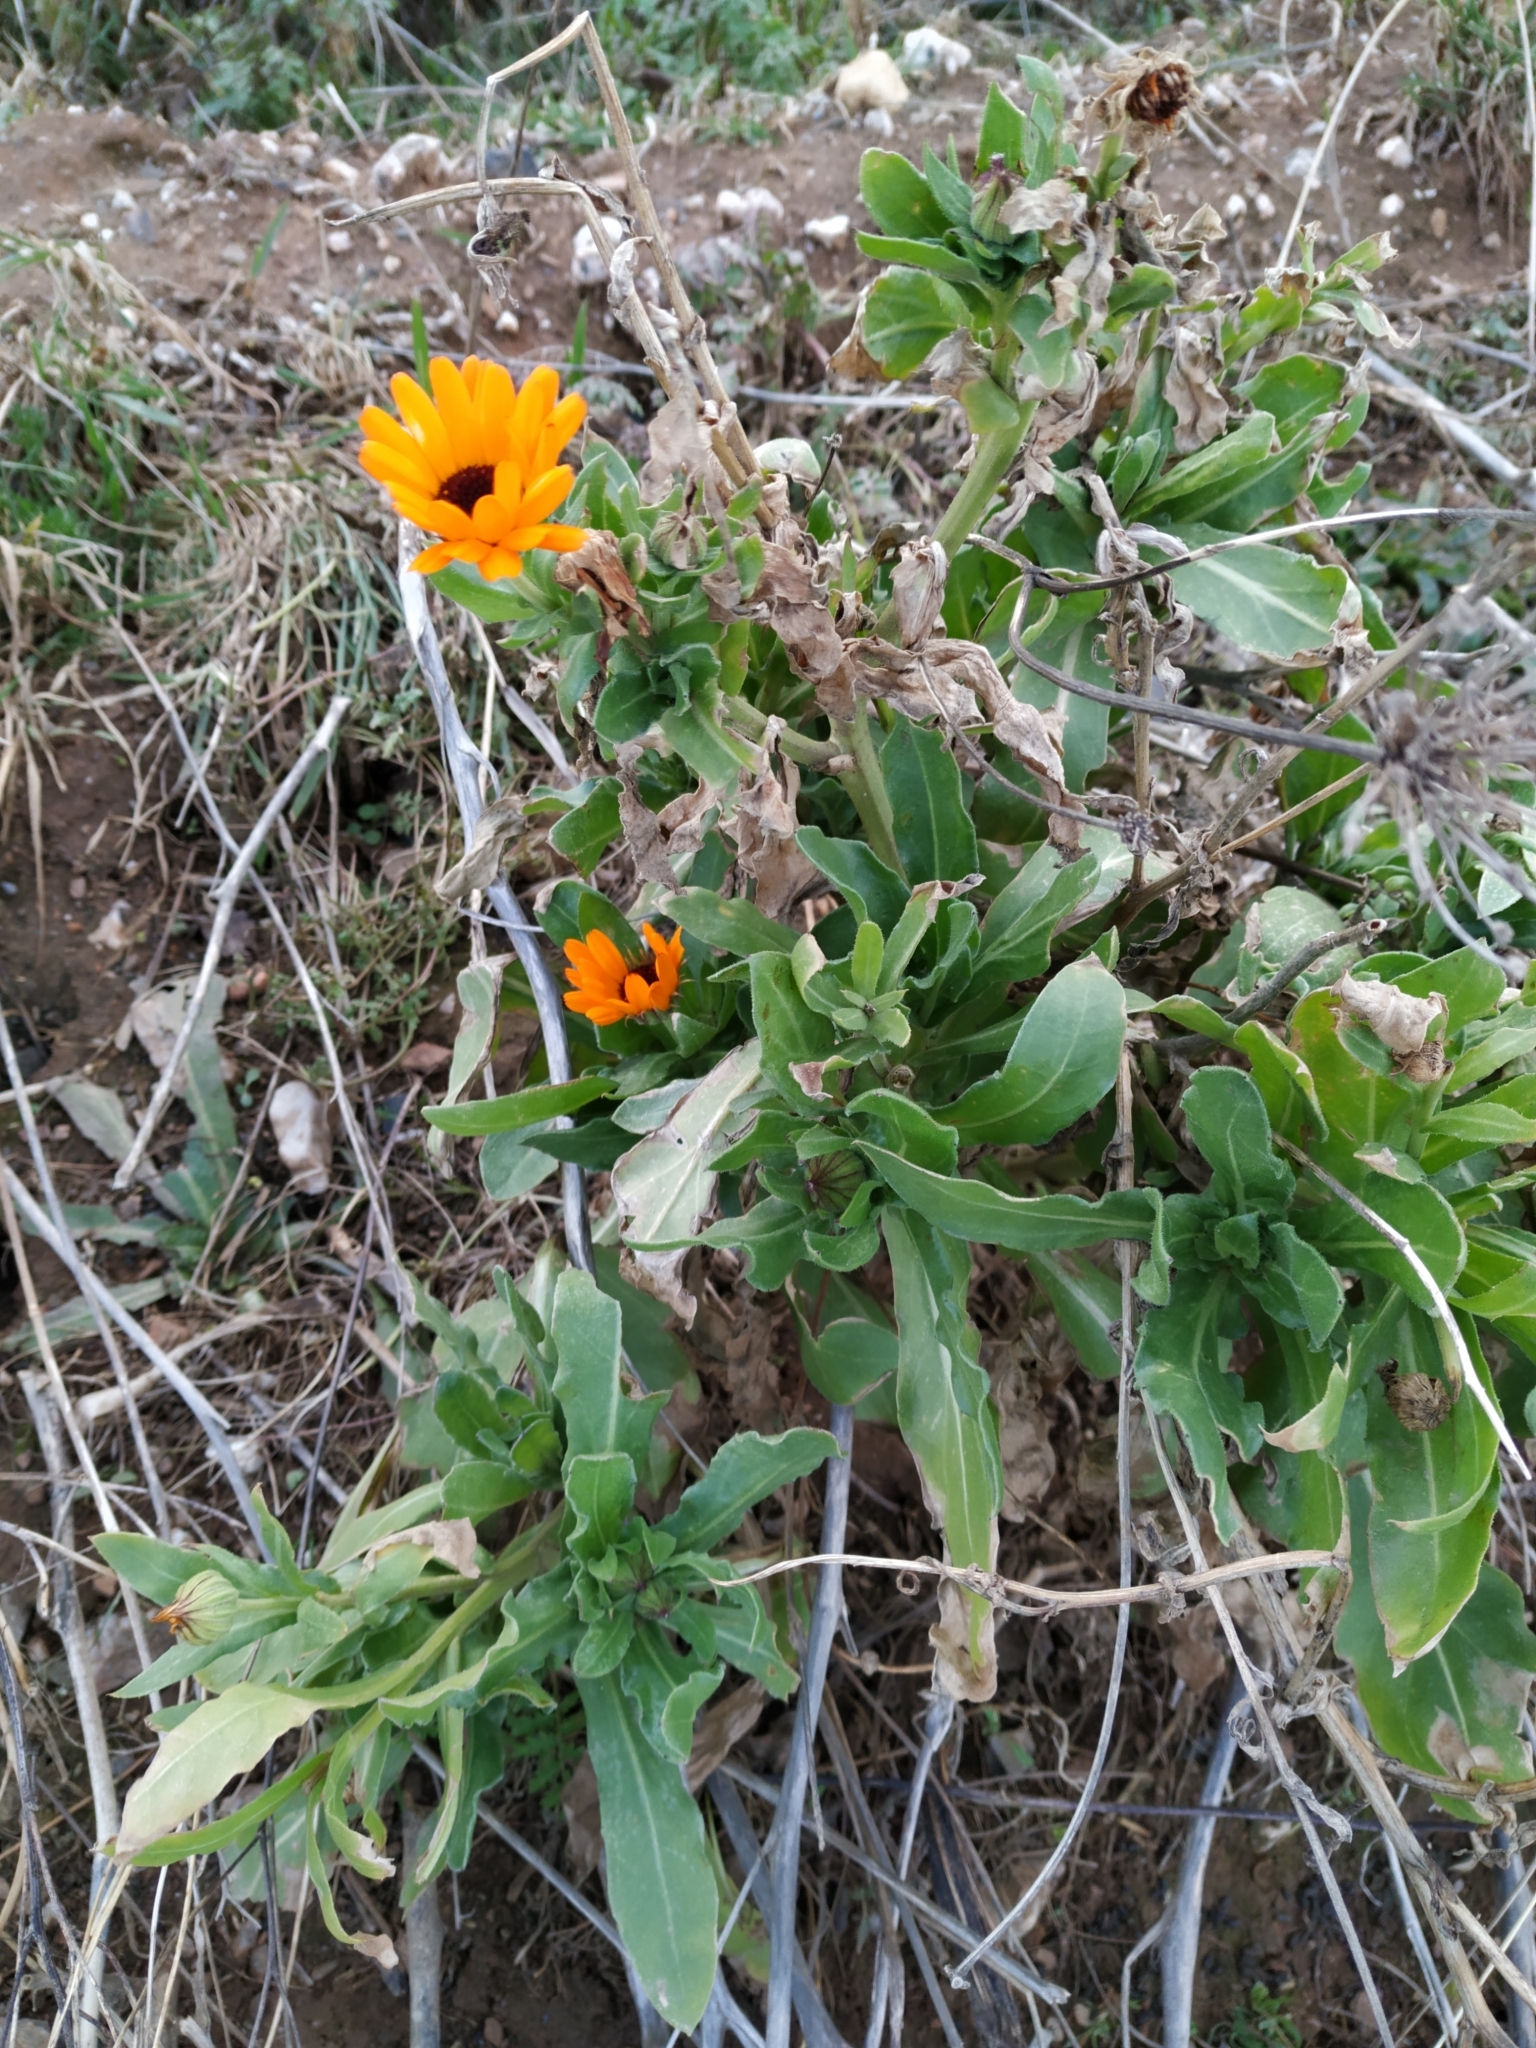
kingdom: Plantae
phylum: Tracheophyta
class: Magnoliopsida
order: Asterales
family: Asteraceae
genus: Calendula
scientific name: Calendula officinalis
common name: Pot marigold
